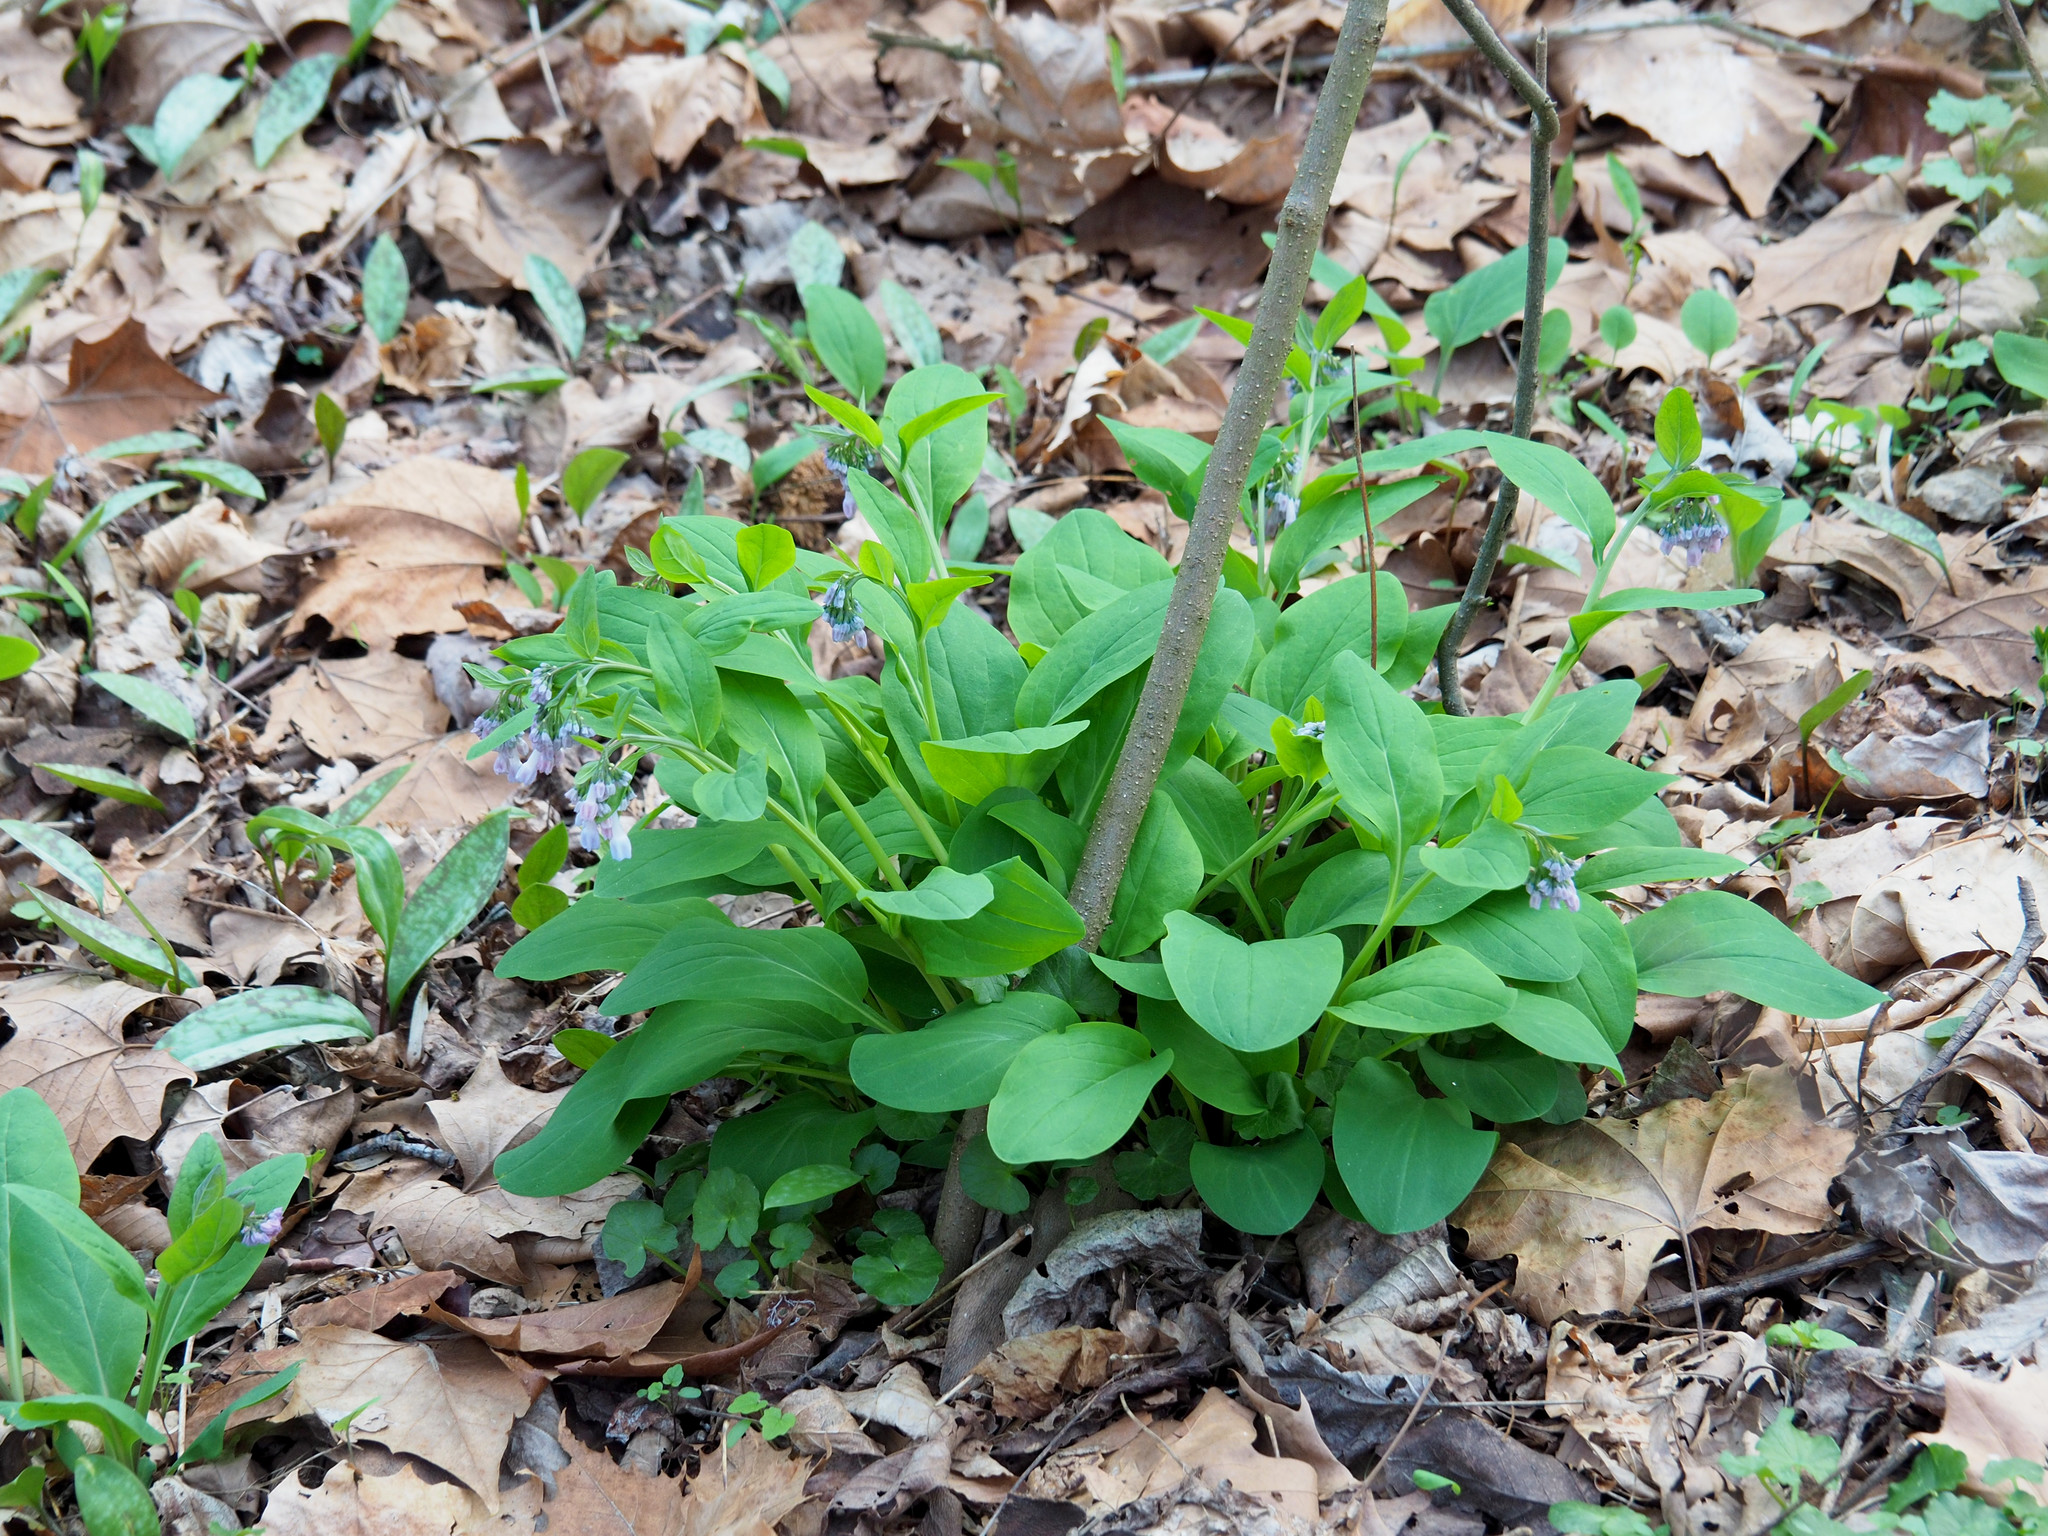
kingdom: Plantae
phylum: Tracheophyta
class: Magnoliopsida
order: Boraginales
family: Boraginaceae
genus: Mertensia
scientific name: Mertensia virginica
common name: Virginia bluebells
